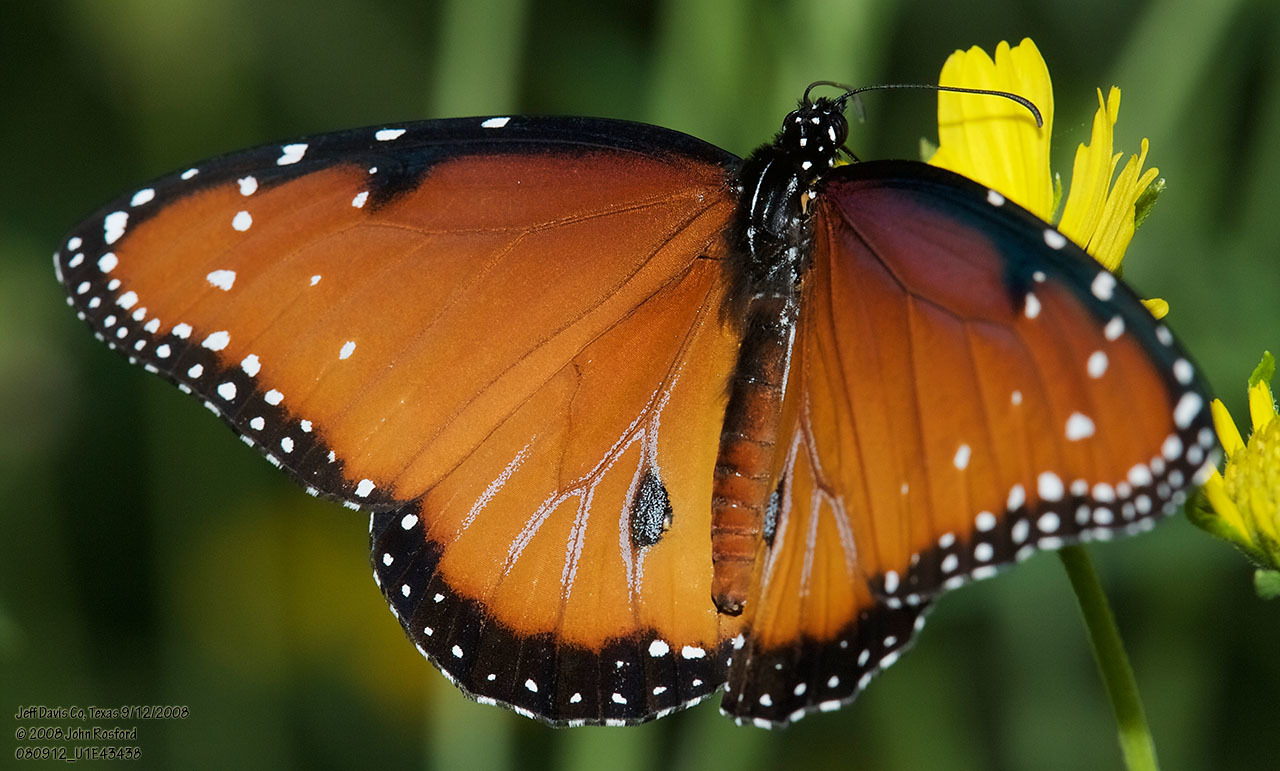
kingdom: Animalia
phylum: Arthropoda
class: Insecta
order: Lepidoptera
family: Nymphalidae
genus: Danaus
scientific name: Danaus gilippus
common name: Queen
